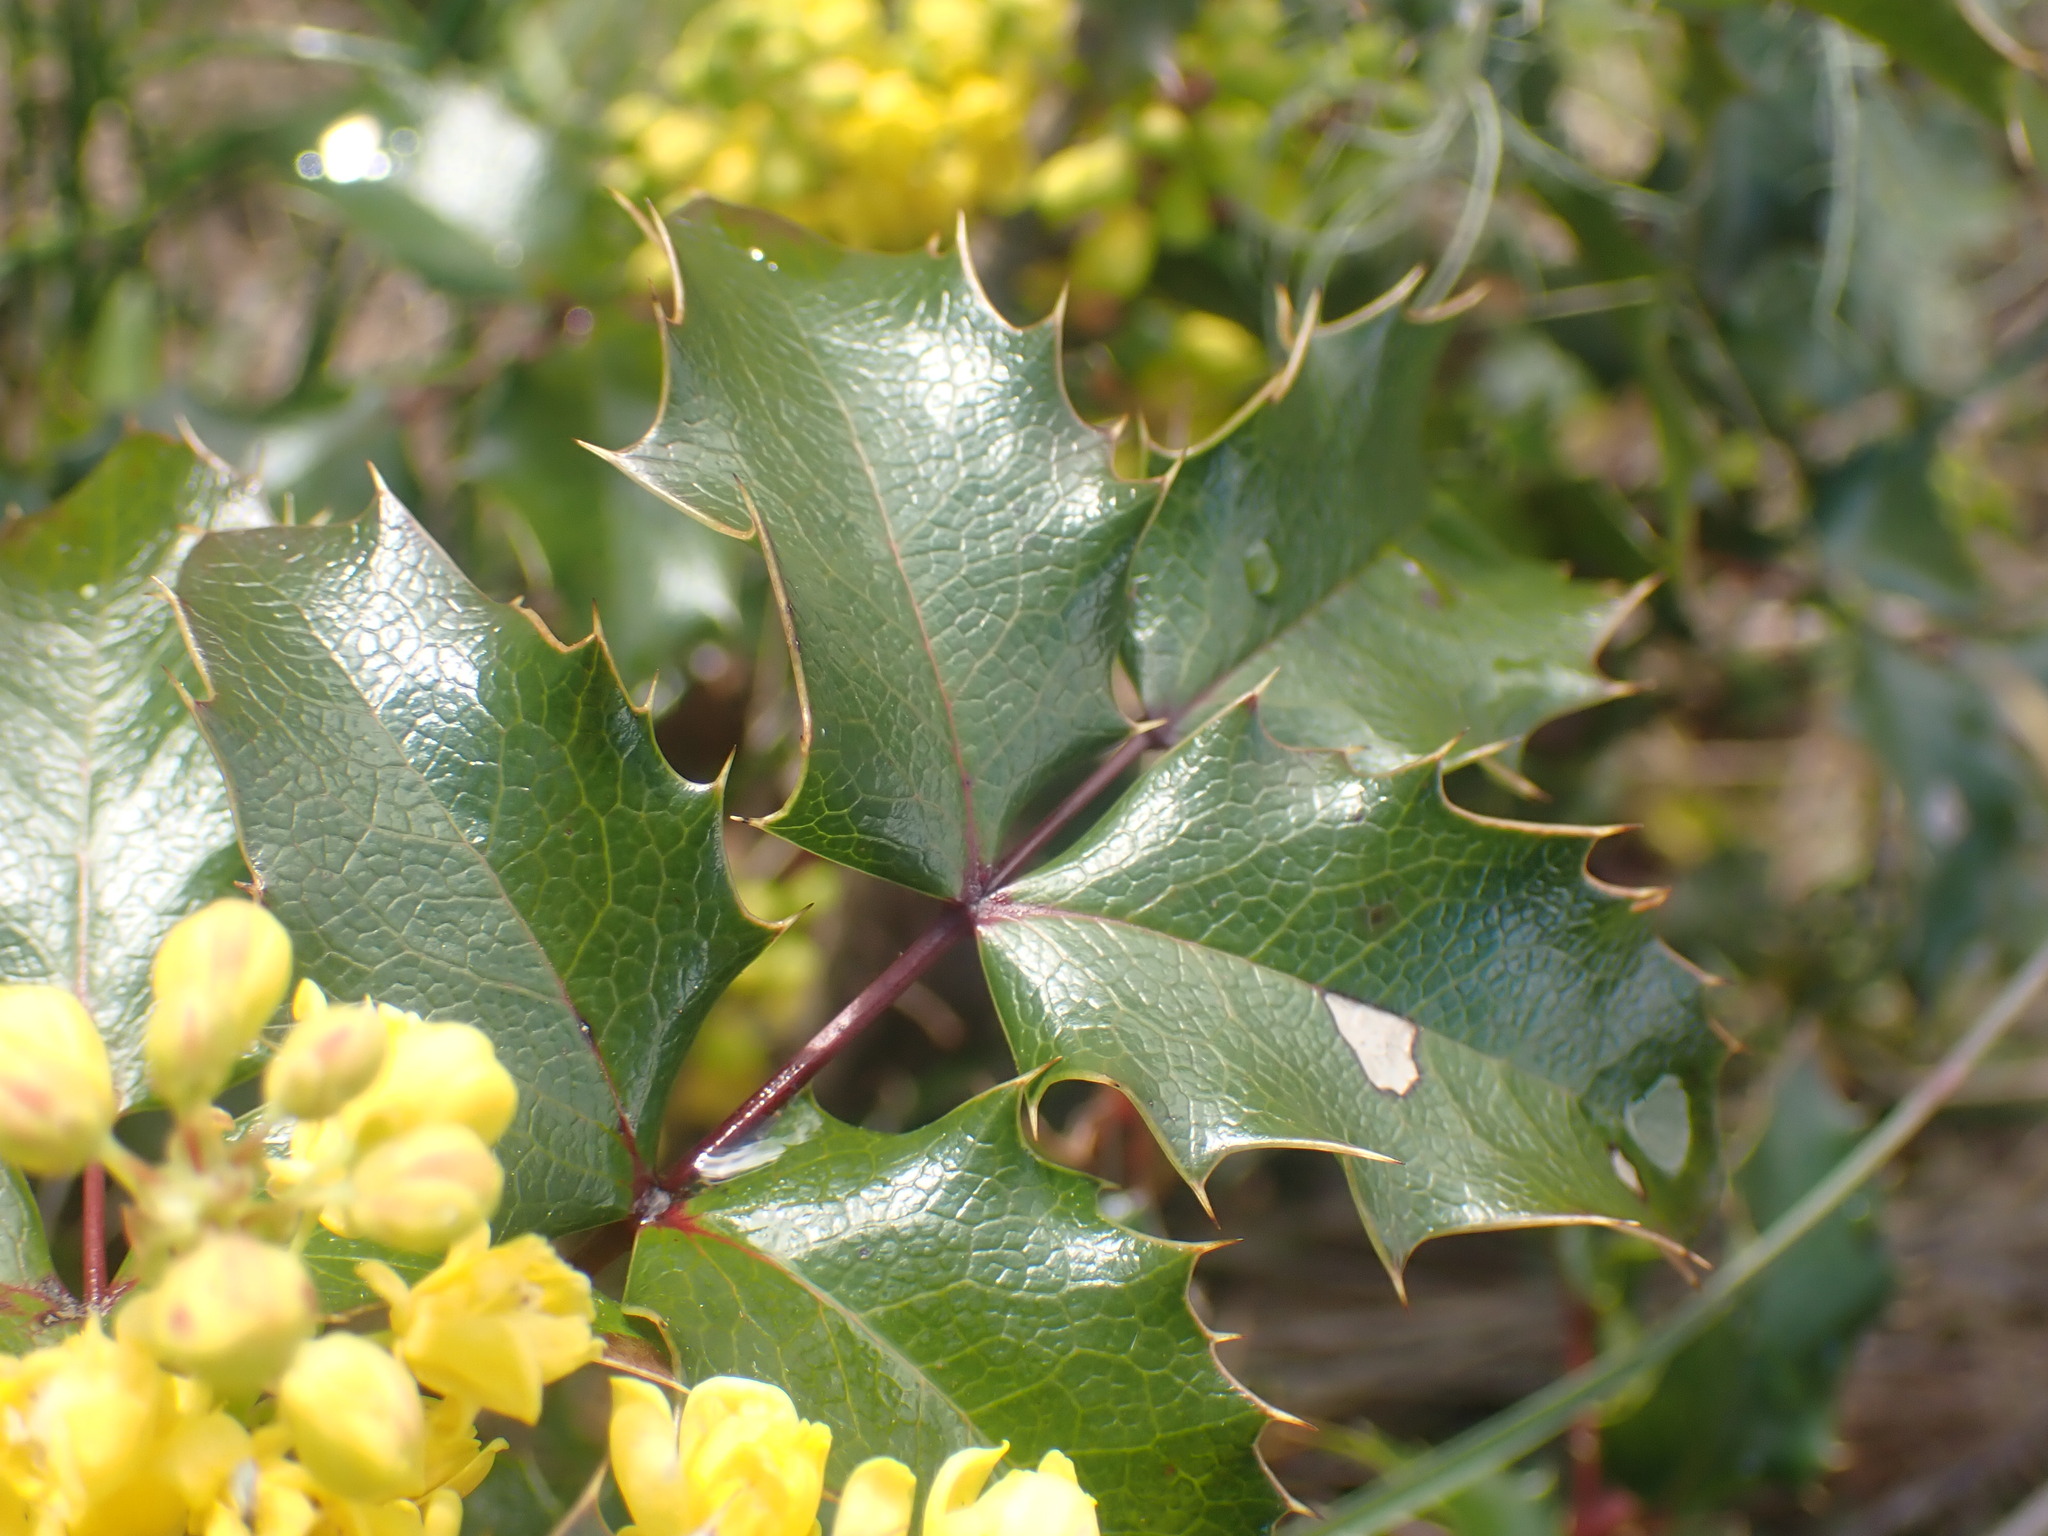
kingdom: Plantae
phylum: Tracheophyta
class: Magnoliopsida
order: Ranunculales
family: Berberidaceae
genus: Mahonia
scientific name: Mahonia aquifolium
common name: Oregon-grape
